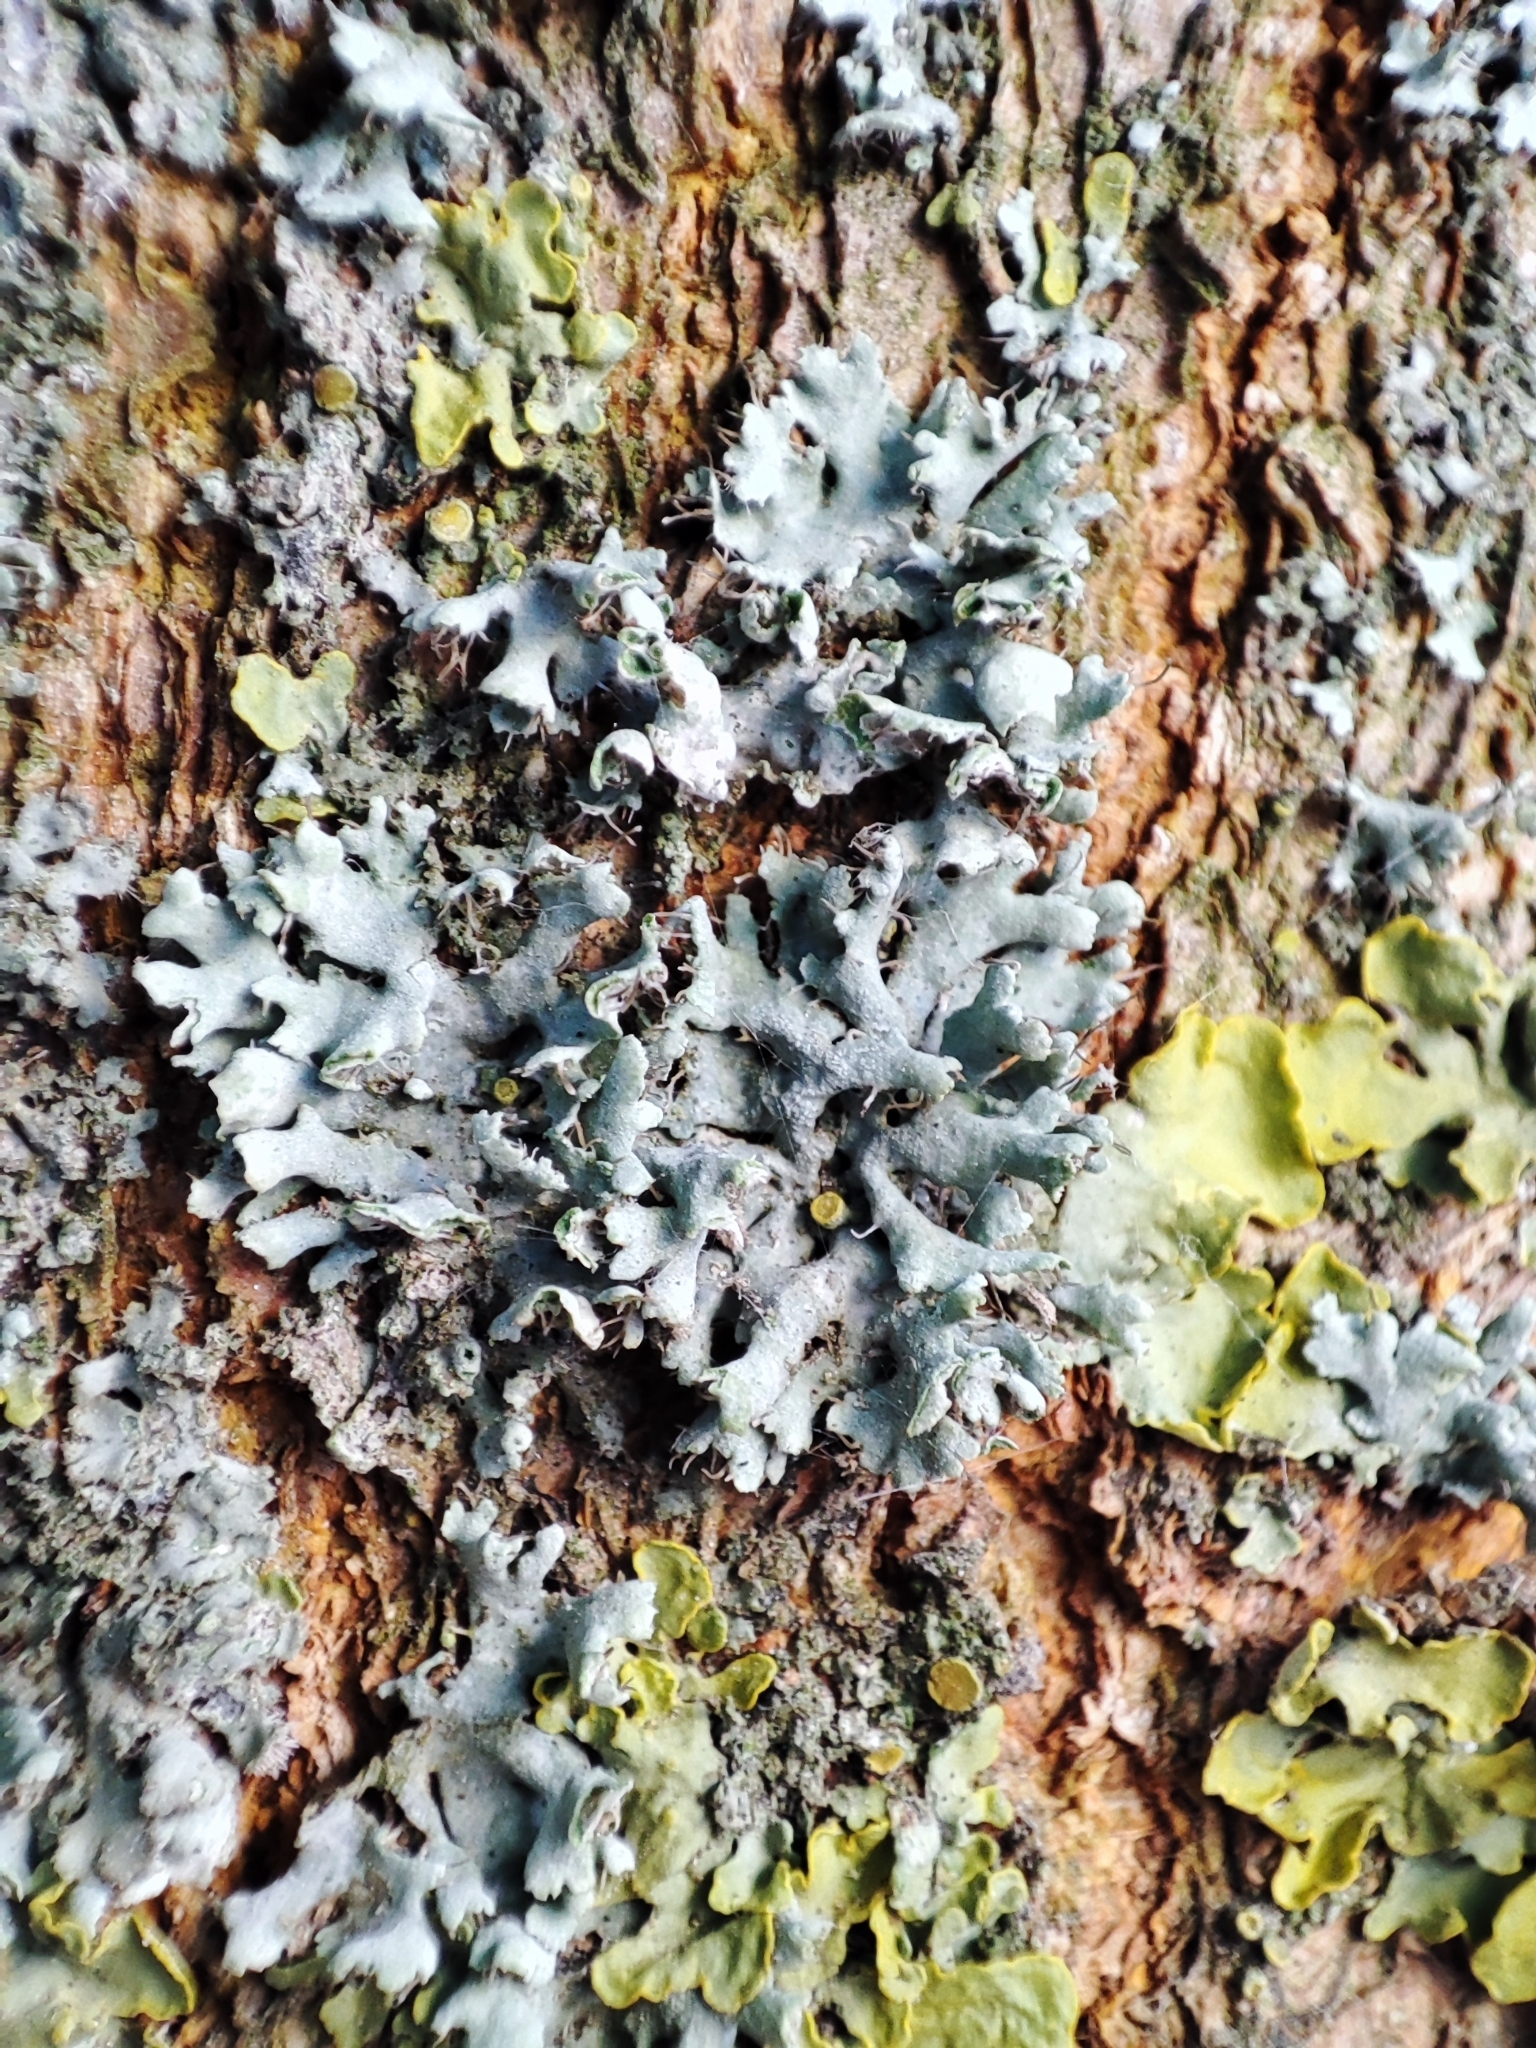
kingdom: Fungi
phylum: Ascomycota
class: Lecanoromycetes
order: Caliciales
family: Physciaceae
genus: Physcia
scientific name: Physcia adscendens
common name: Hooded rosette lichen
